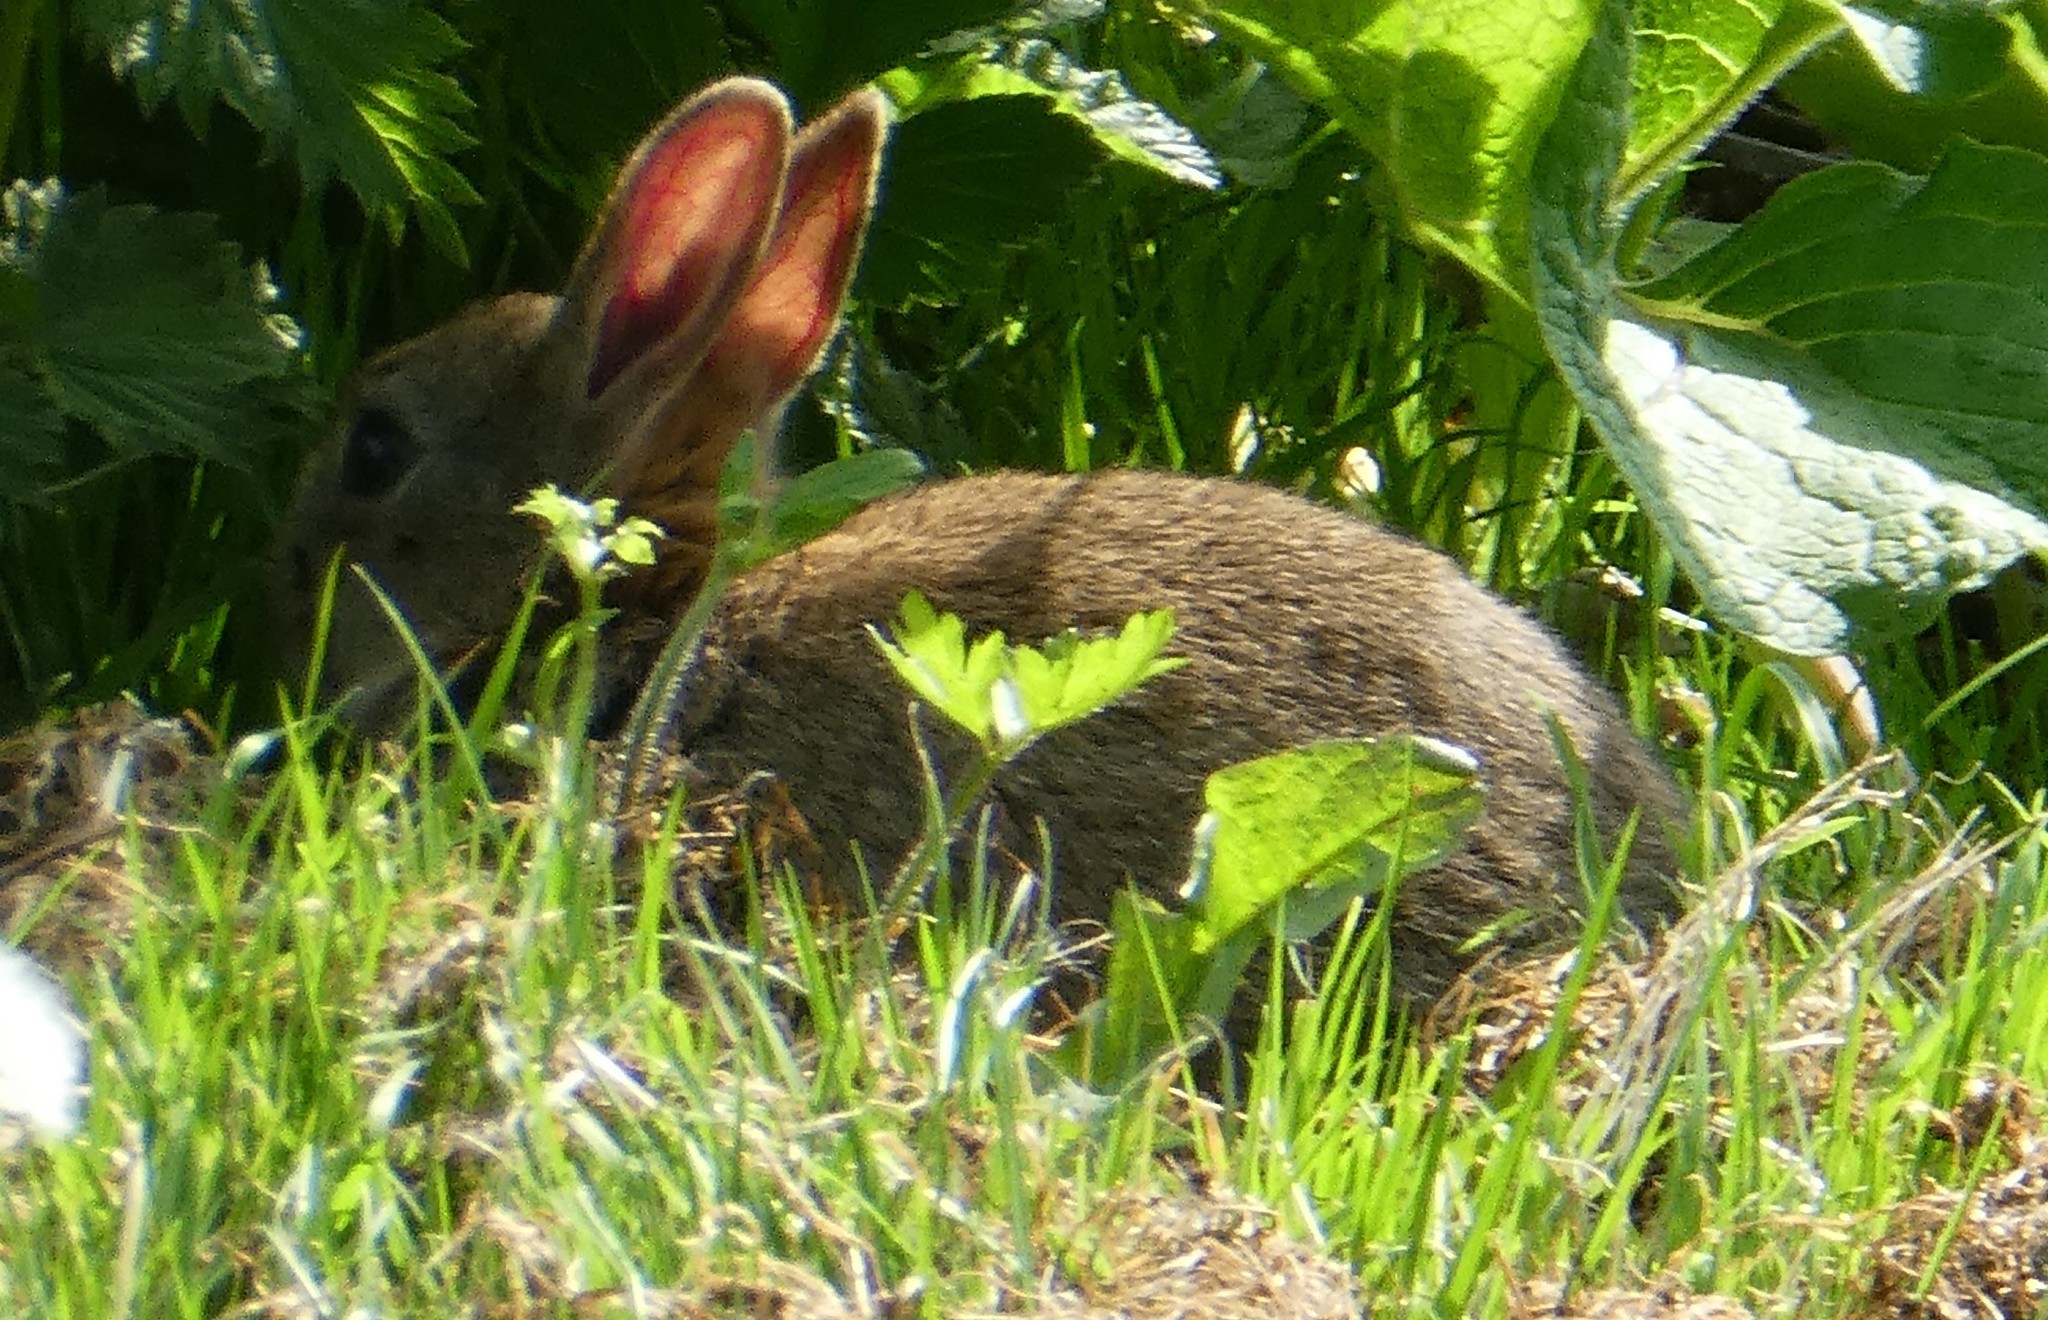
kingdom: Animalia
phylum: Chordata
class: Mammalia
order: Lagomorpha
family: Leporidae
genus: Oryctolagus
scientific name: Oryctolagus cuniculus
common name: European rabbit
